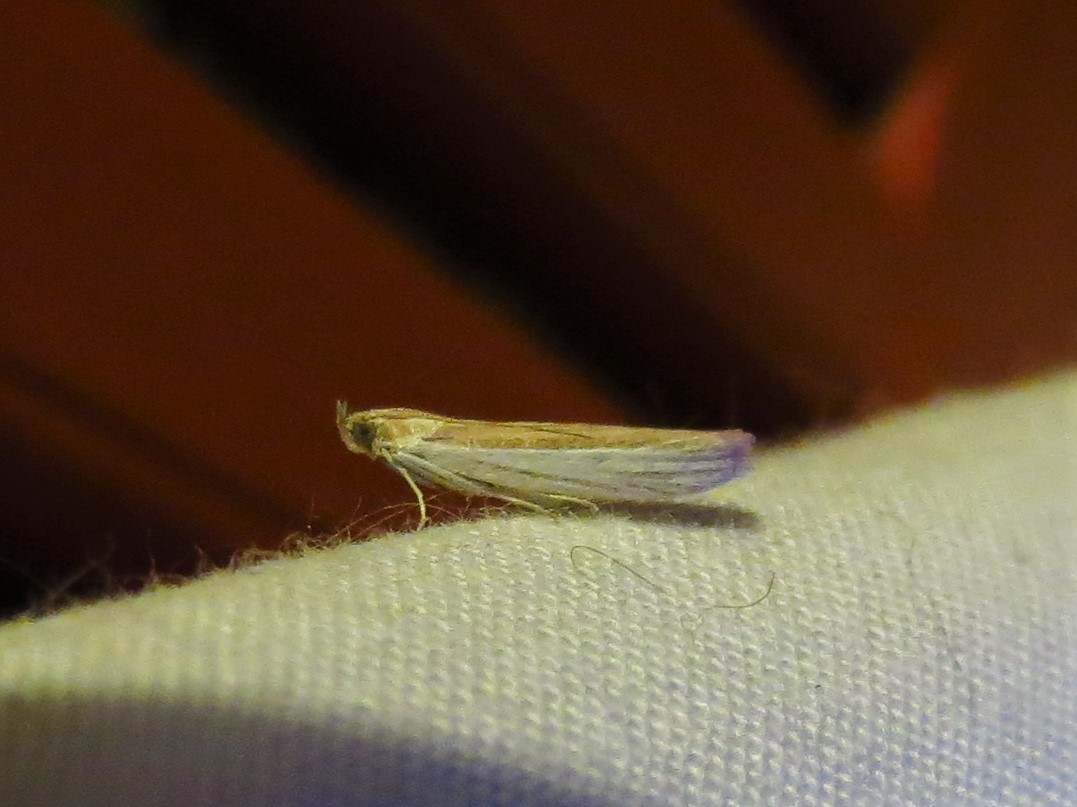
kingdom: Animalia
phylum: Arthropoda
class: Insecta
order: Lepidoptera
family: Pyralidae
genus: Tampa
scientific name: Tampa dimediatella
